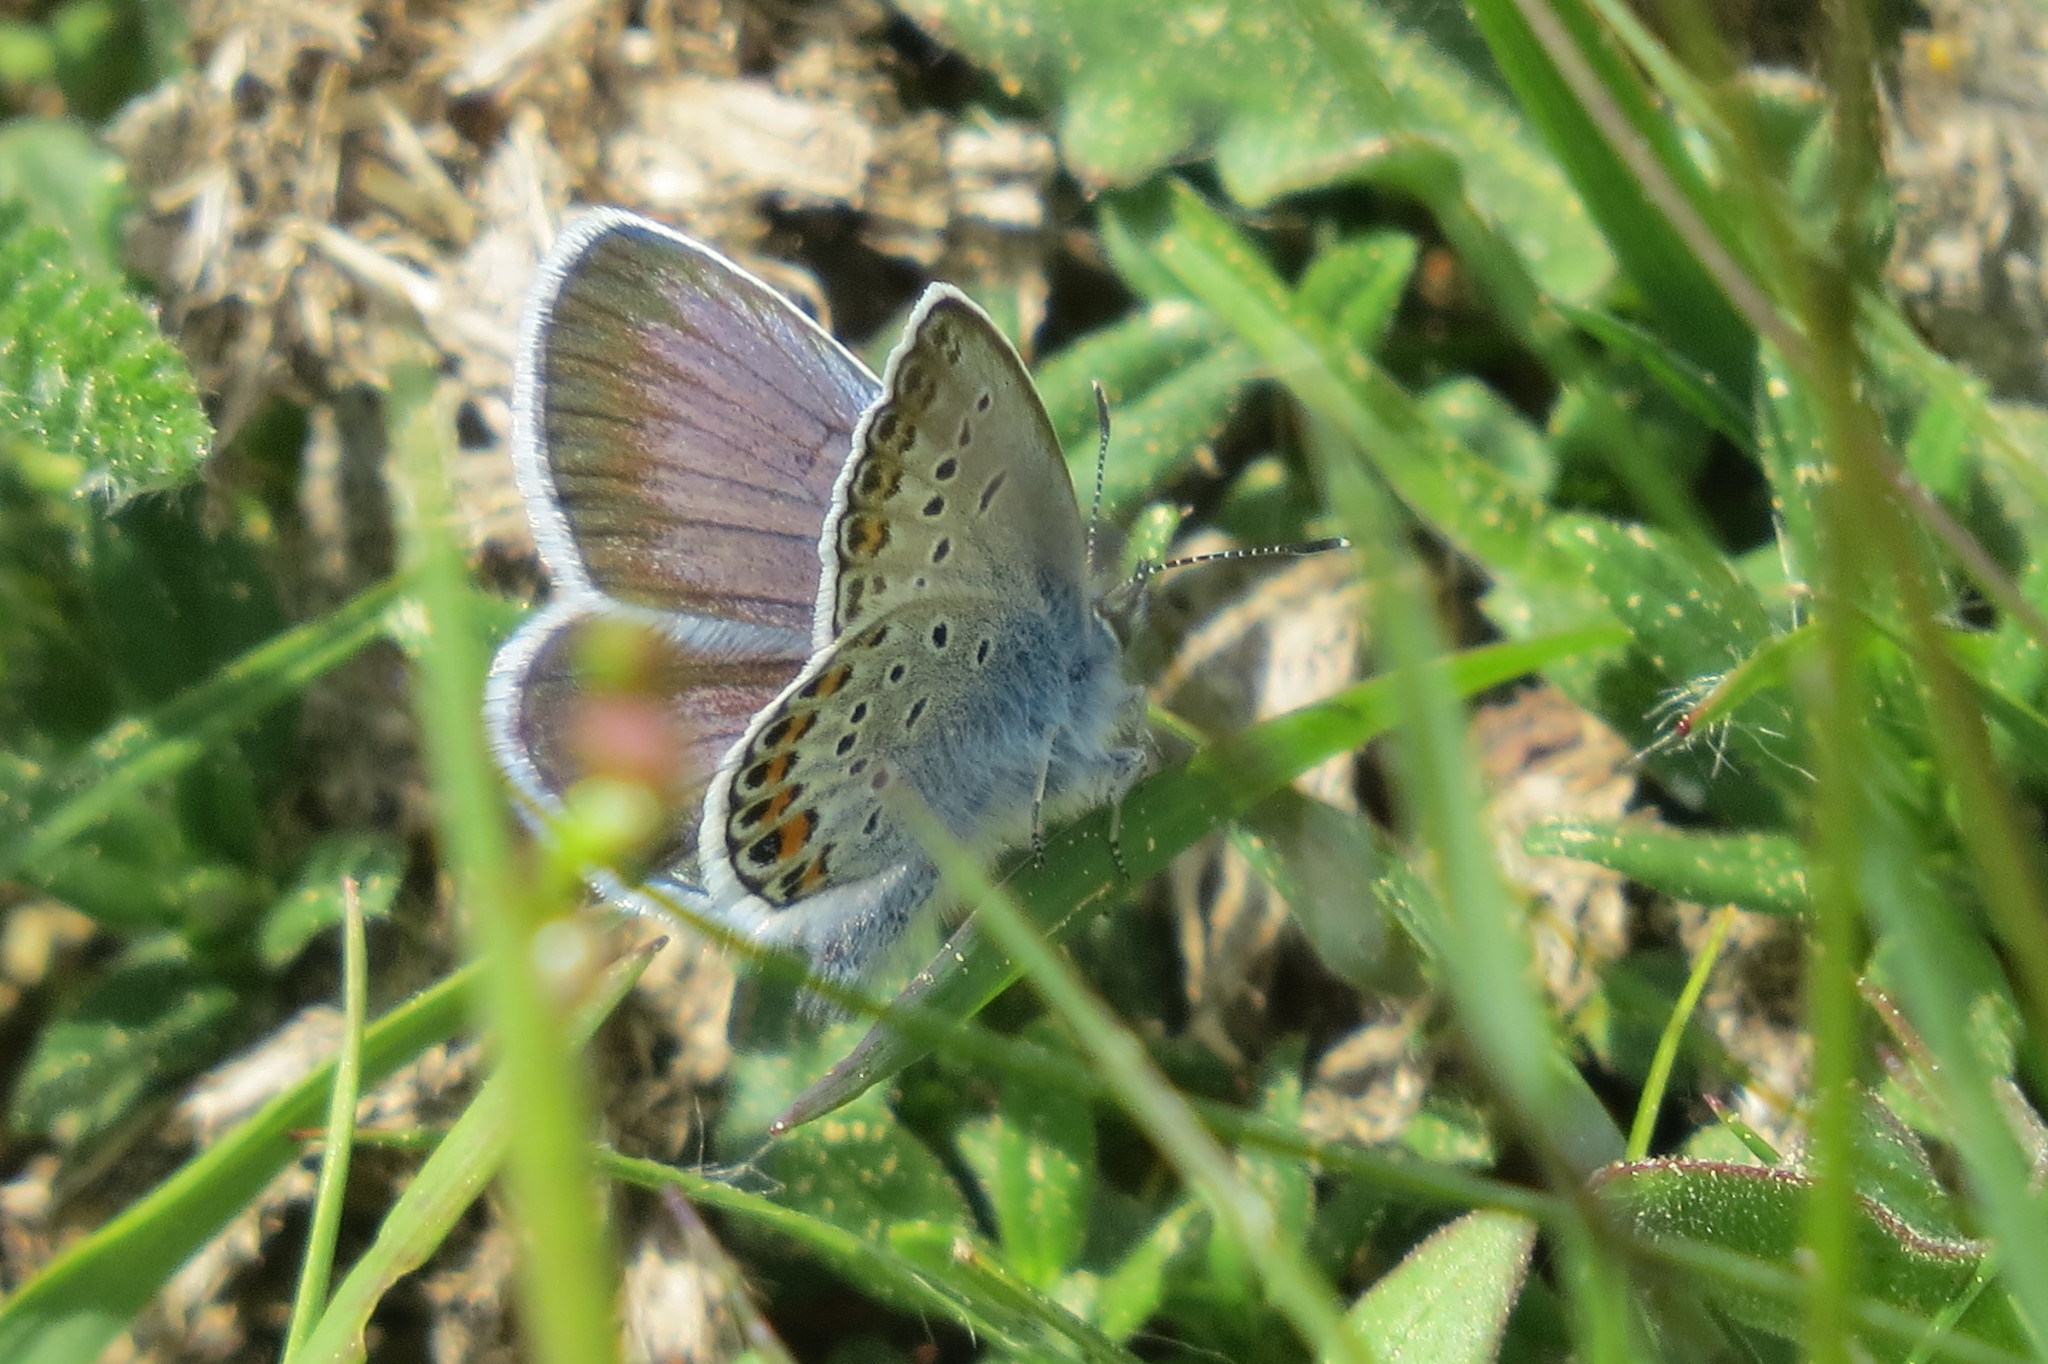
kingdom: Animalia
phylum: Arthropoda
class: Insecta
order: Lepidoptera
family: Lycaenidae
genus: Plebejus
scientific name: Plebejus argus
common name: Silver-studded blue
